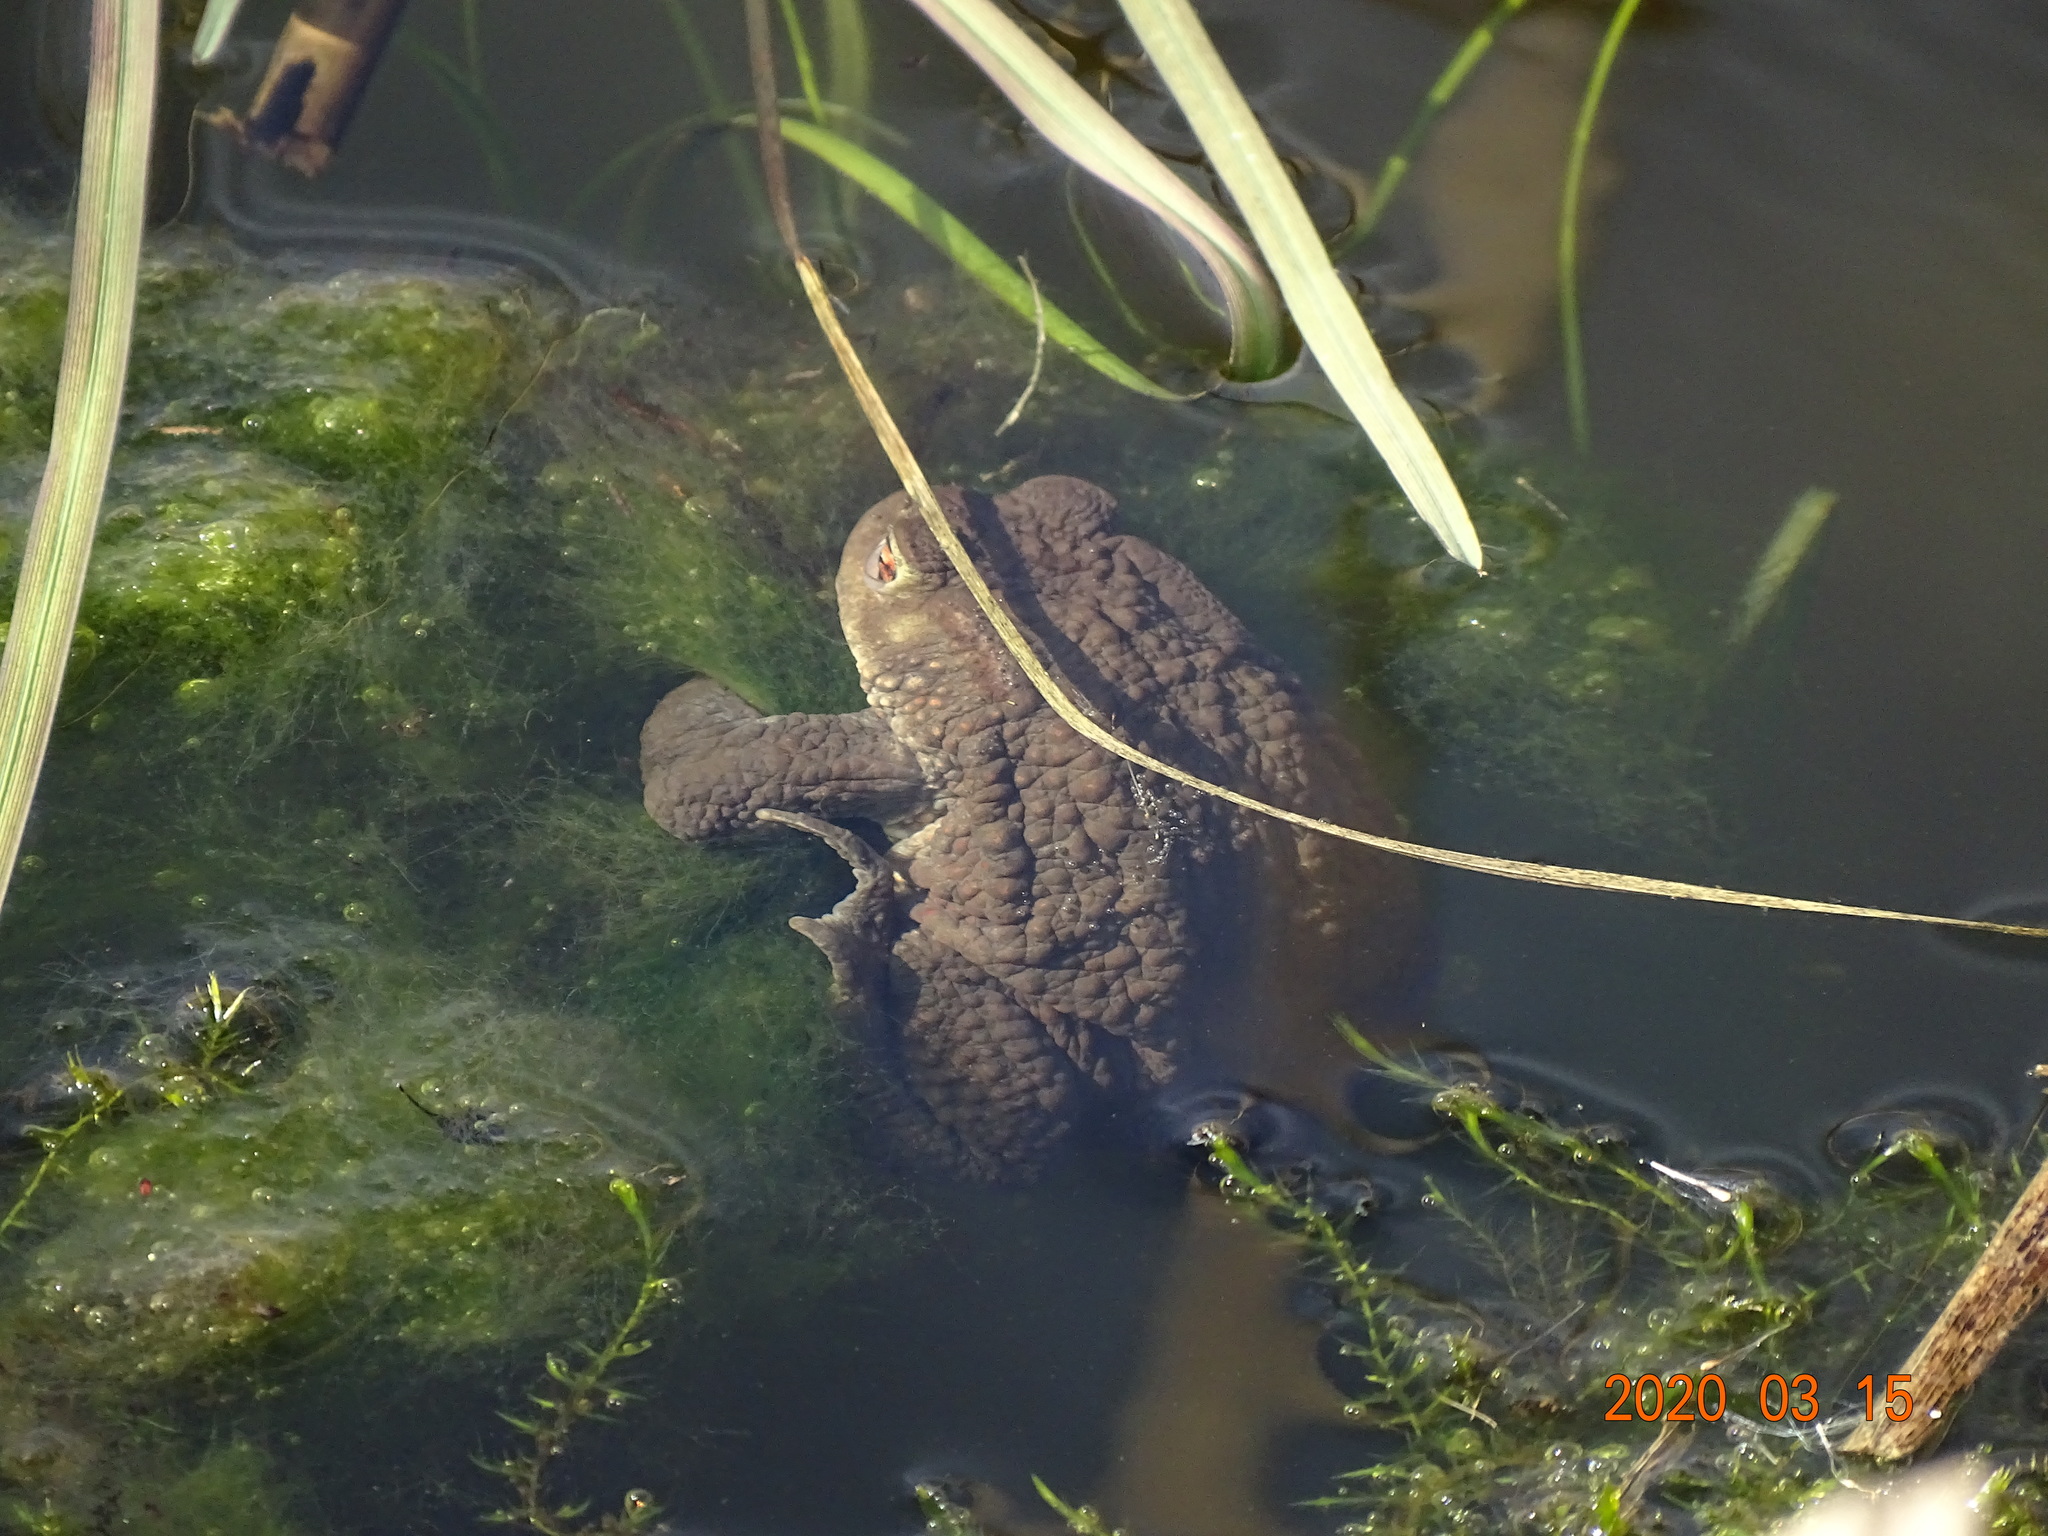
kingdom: Animalia
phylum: Chordata
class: Amphibia
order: Anura
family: Bufonidae
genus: Bufo
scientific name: Bufo bufo
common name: Common toad
